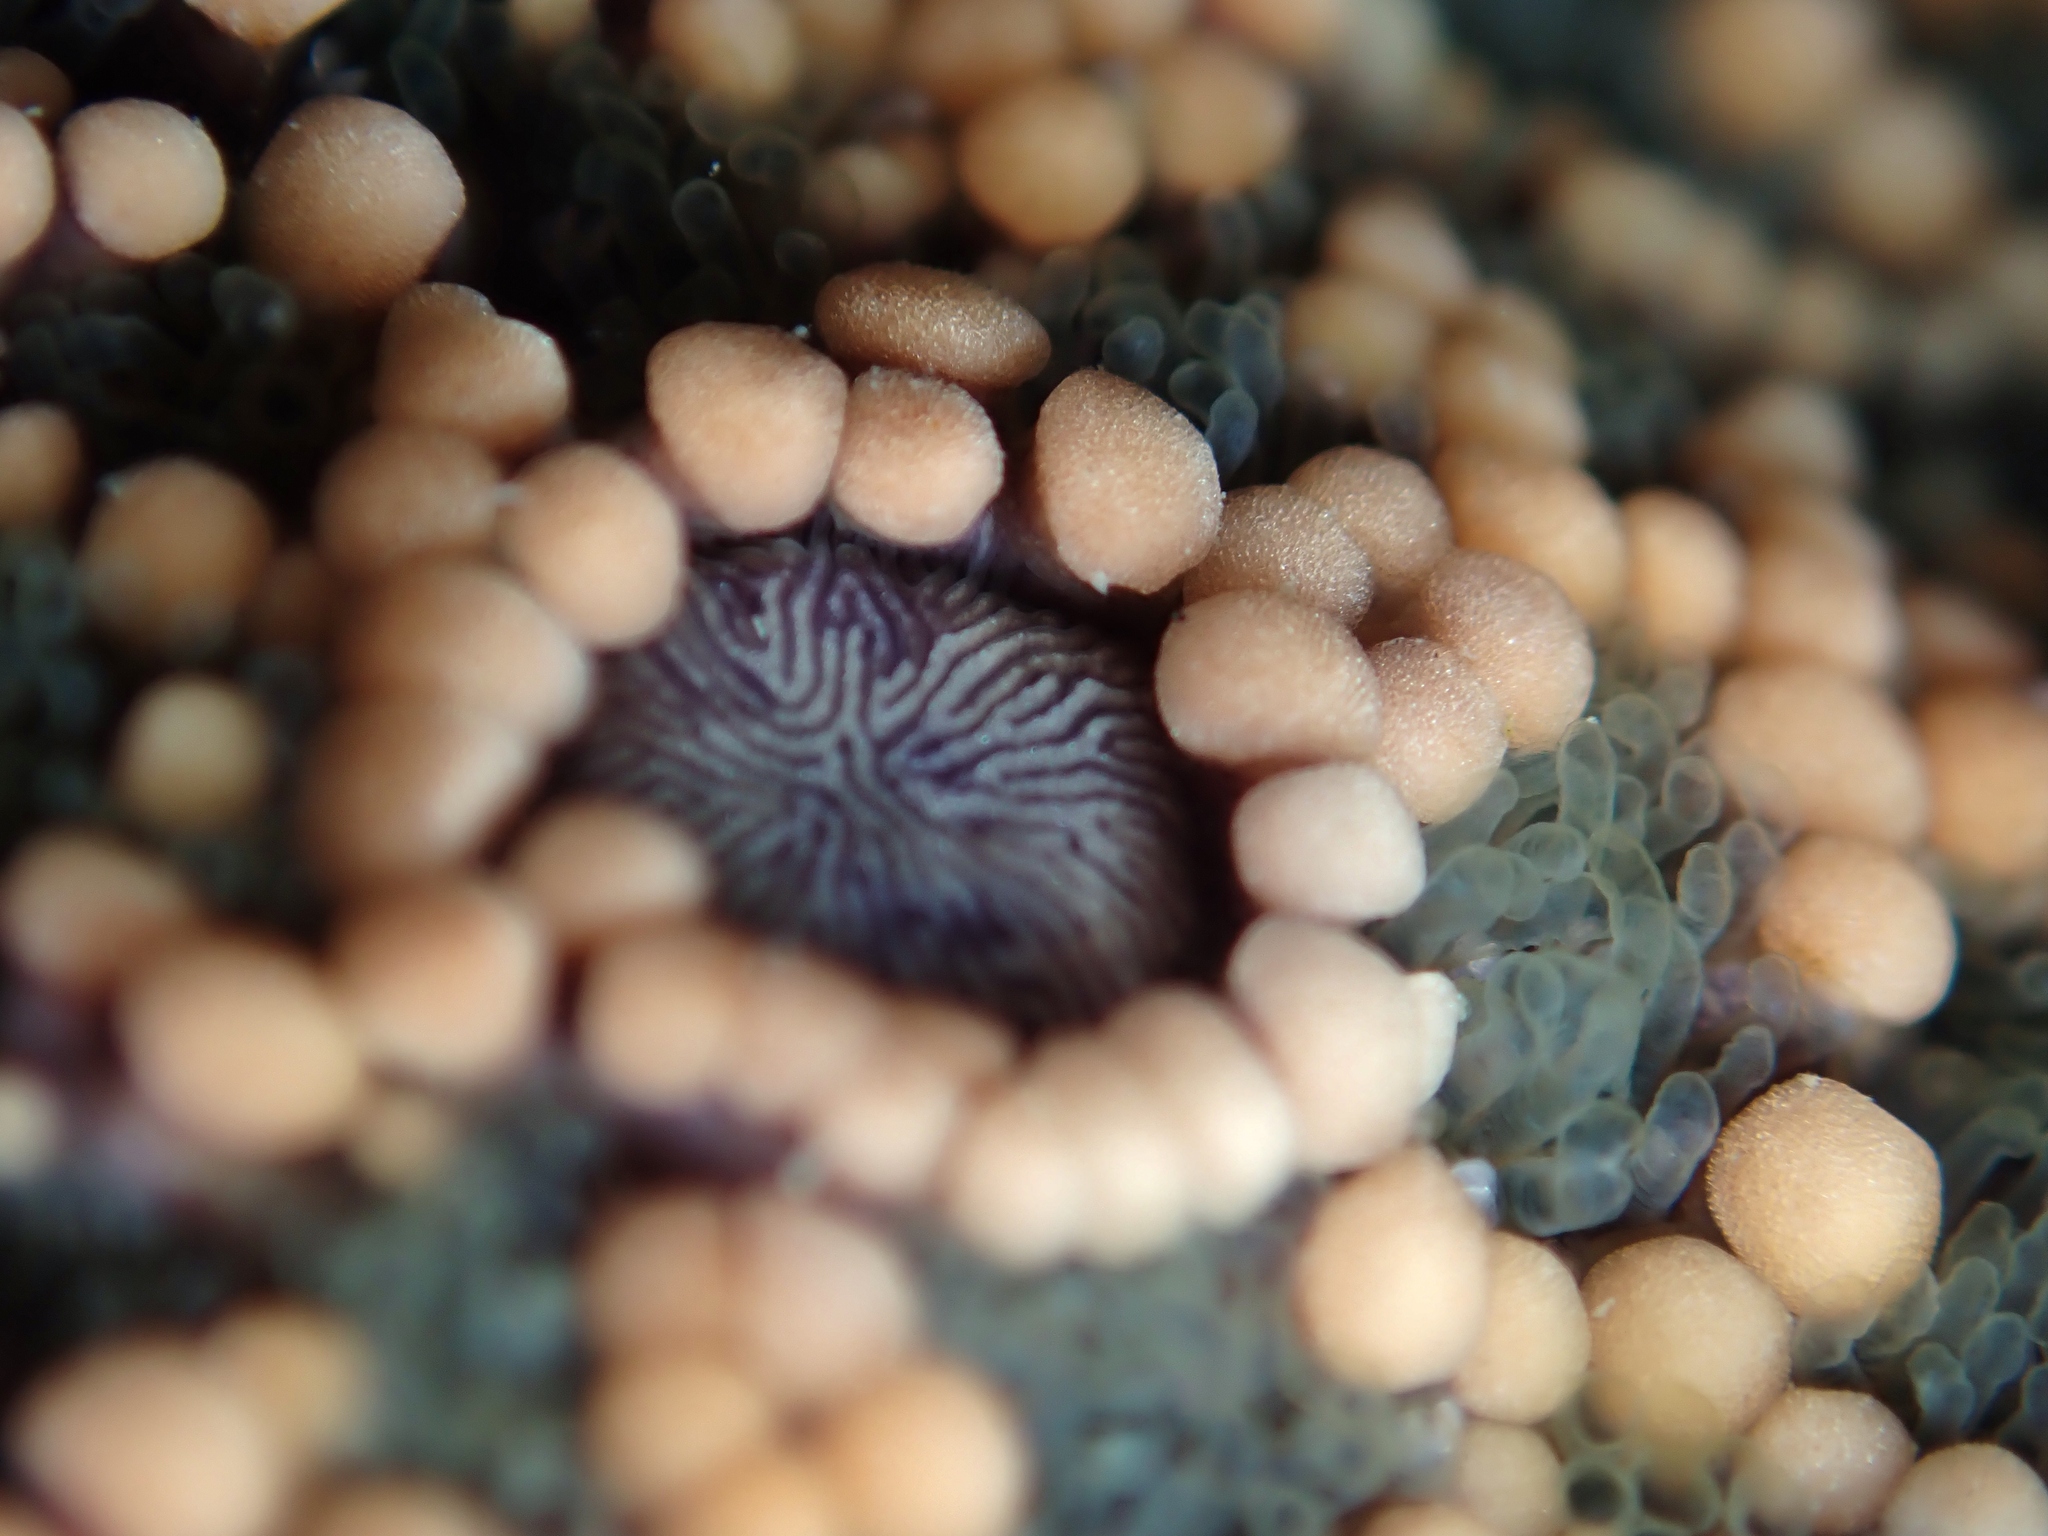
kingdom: Animalia
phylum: Echinodermata
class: Asteroidea
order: Forcipulatida
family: Stichasteridae
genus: Stichaster
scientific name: Stichaster australis
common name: Reef starfish
